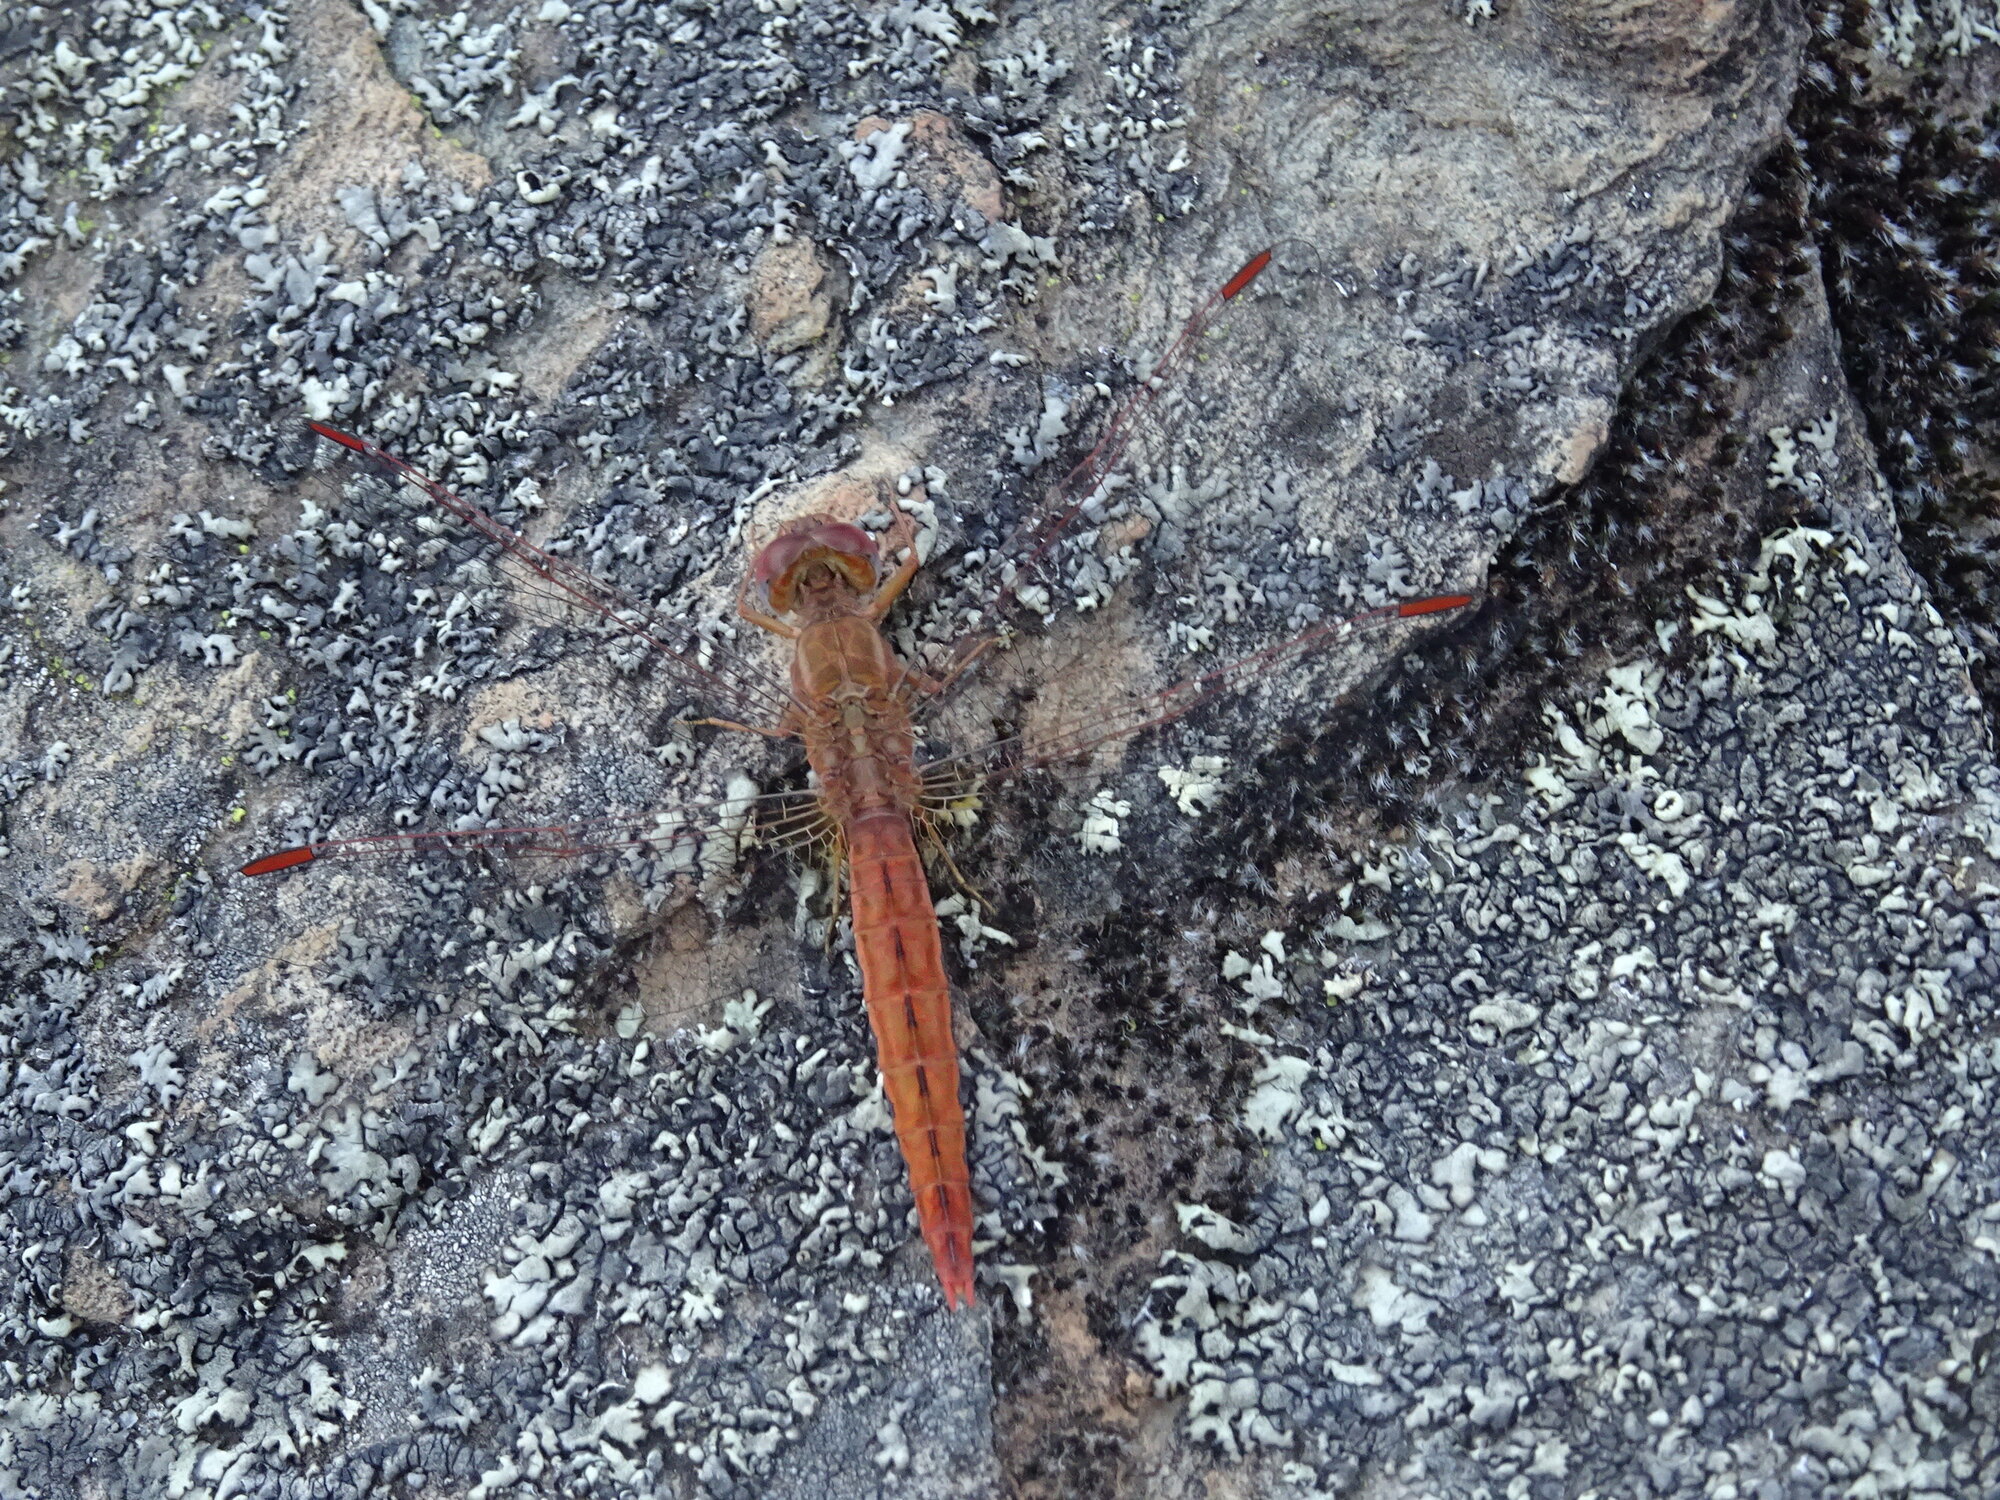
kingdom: Animalia
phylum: Arthropoda
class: Insecta
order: Odonata
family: Libellulidae
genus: Crocothemis
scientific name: Crocothemis sanguinolenta
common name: Little scarlet
